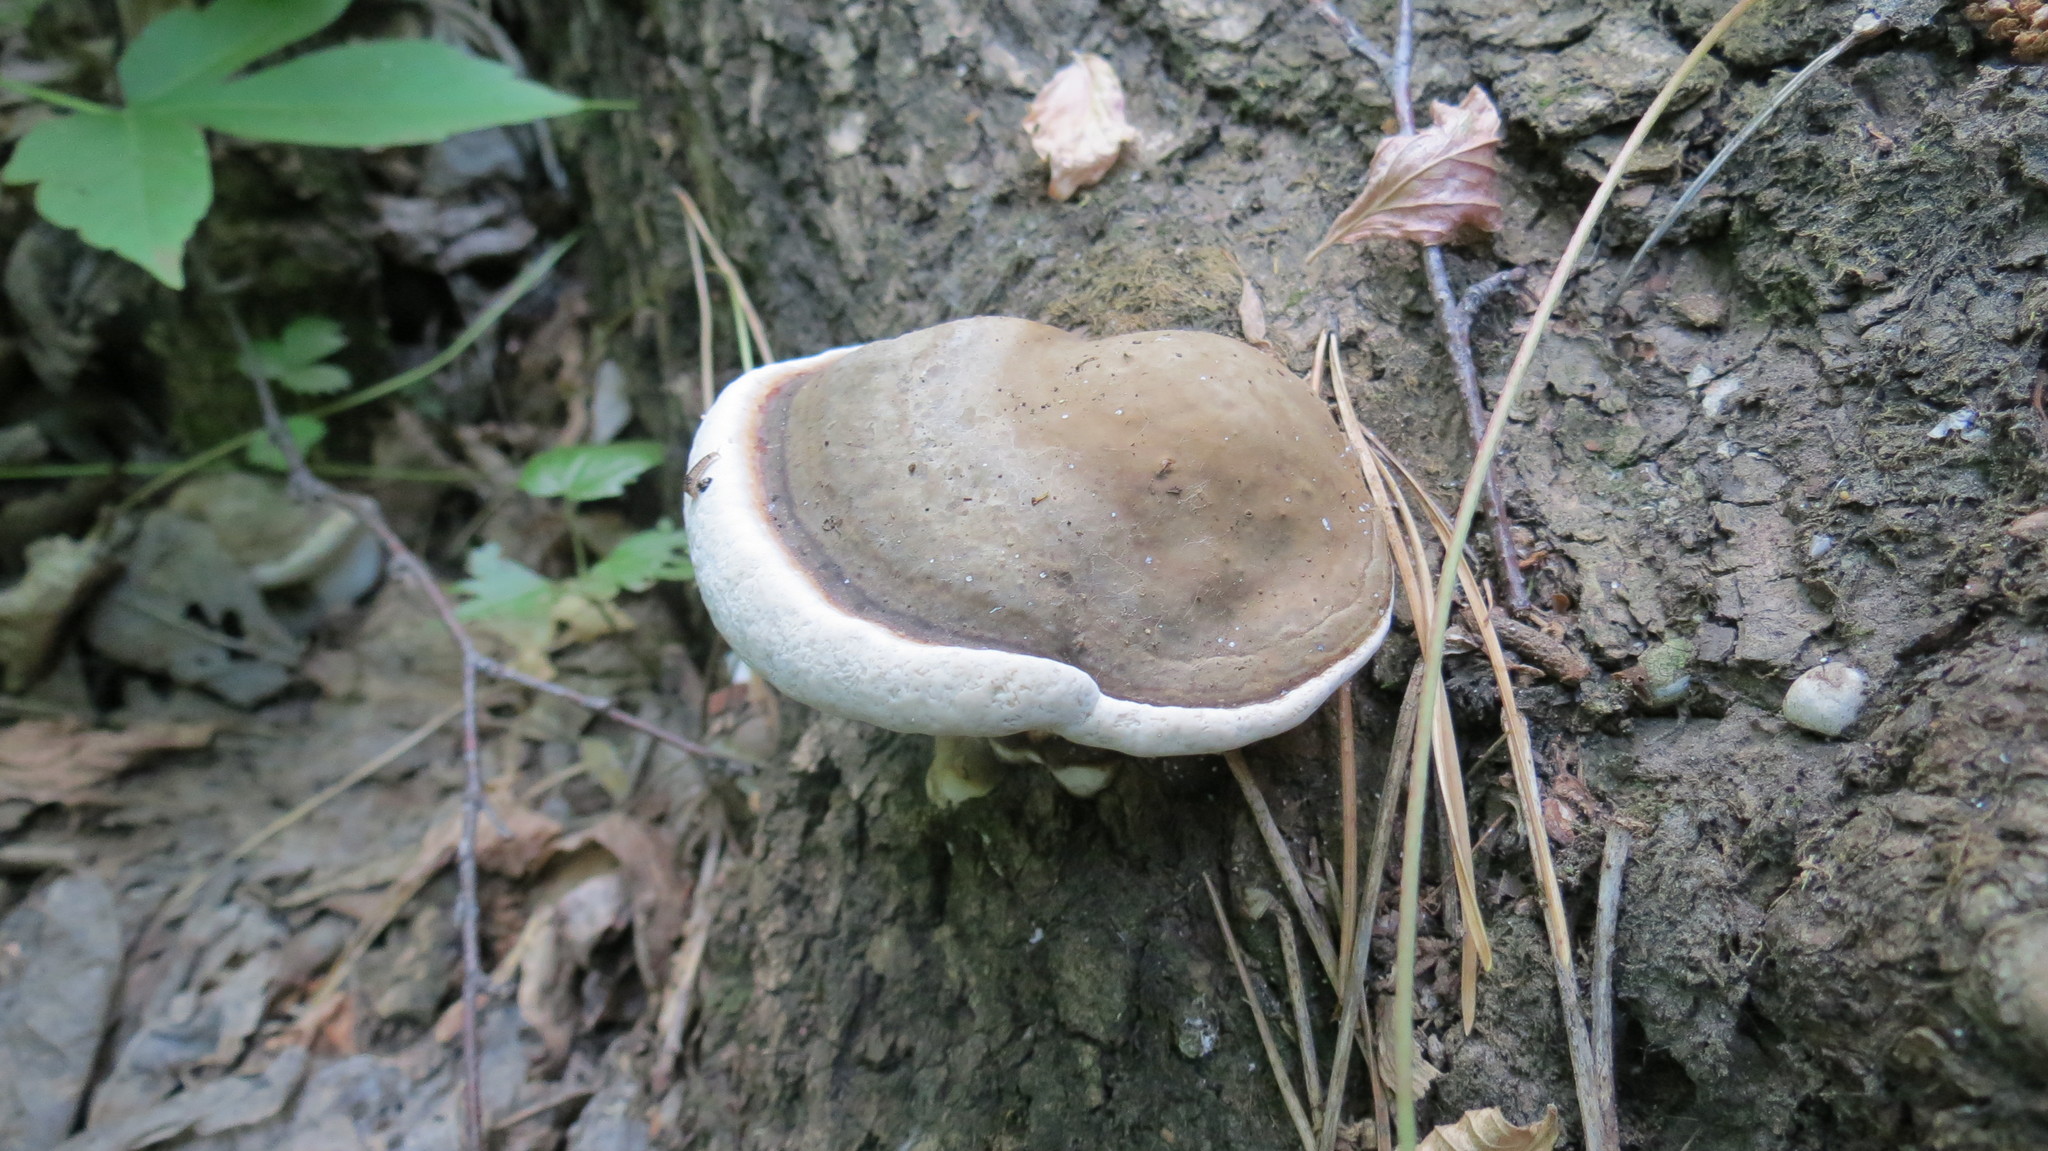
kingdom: Fungi
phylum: Basidiomycota
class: Agaricomycetes
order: Polyporales
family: Polyporaceae
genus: Ganoderma
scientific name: Ganoderma applanatum
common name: Artist's bracket
